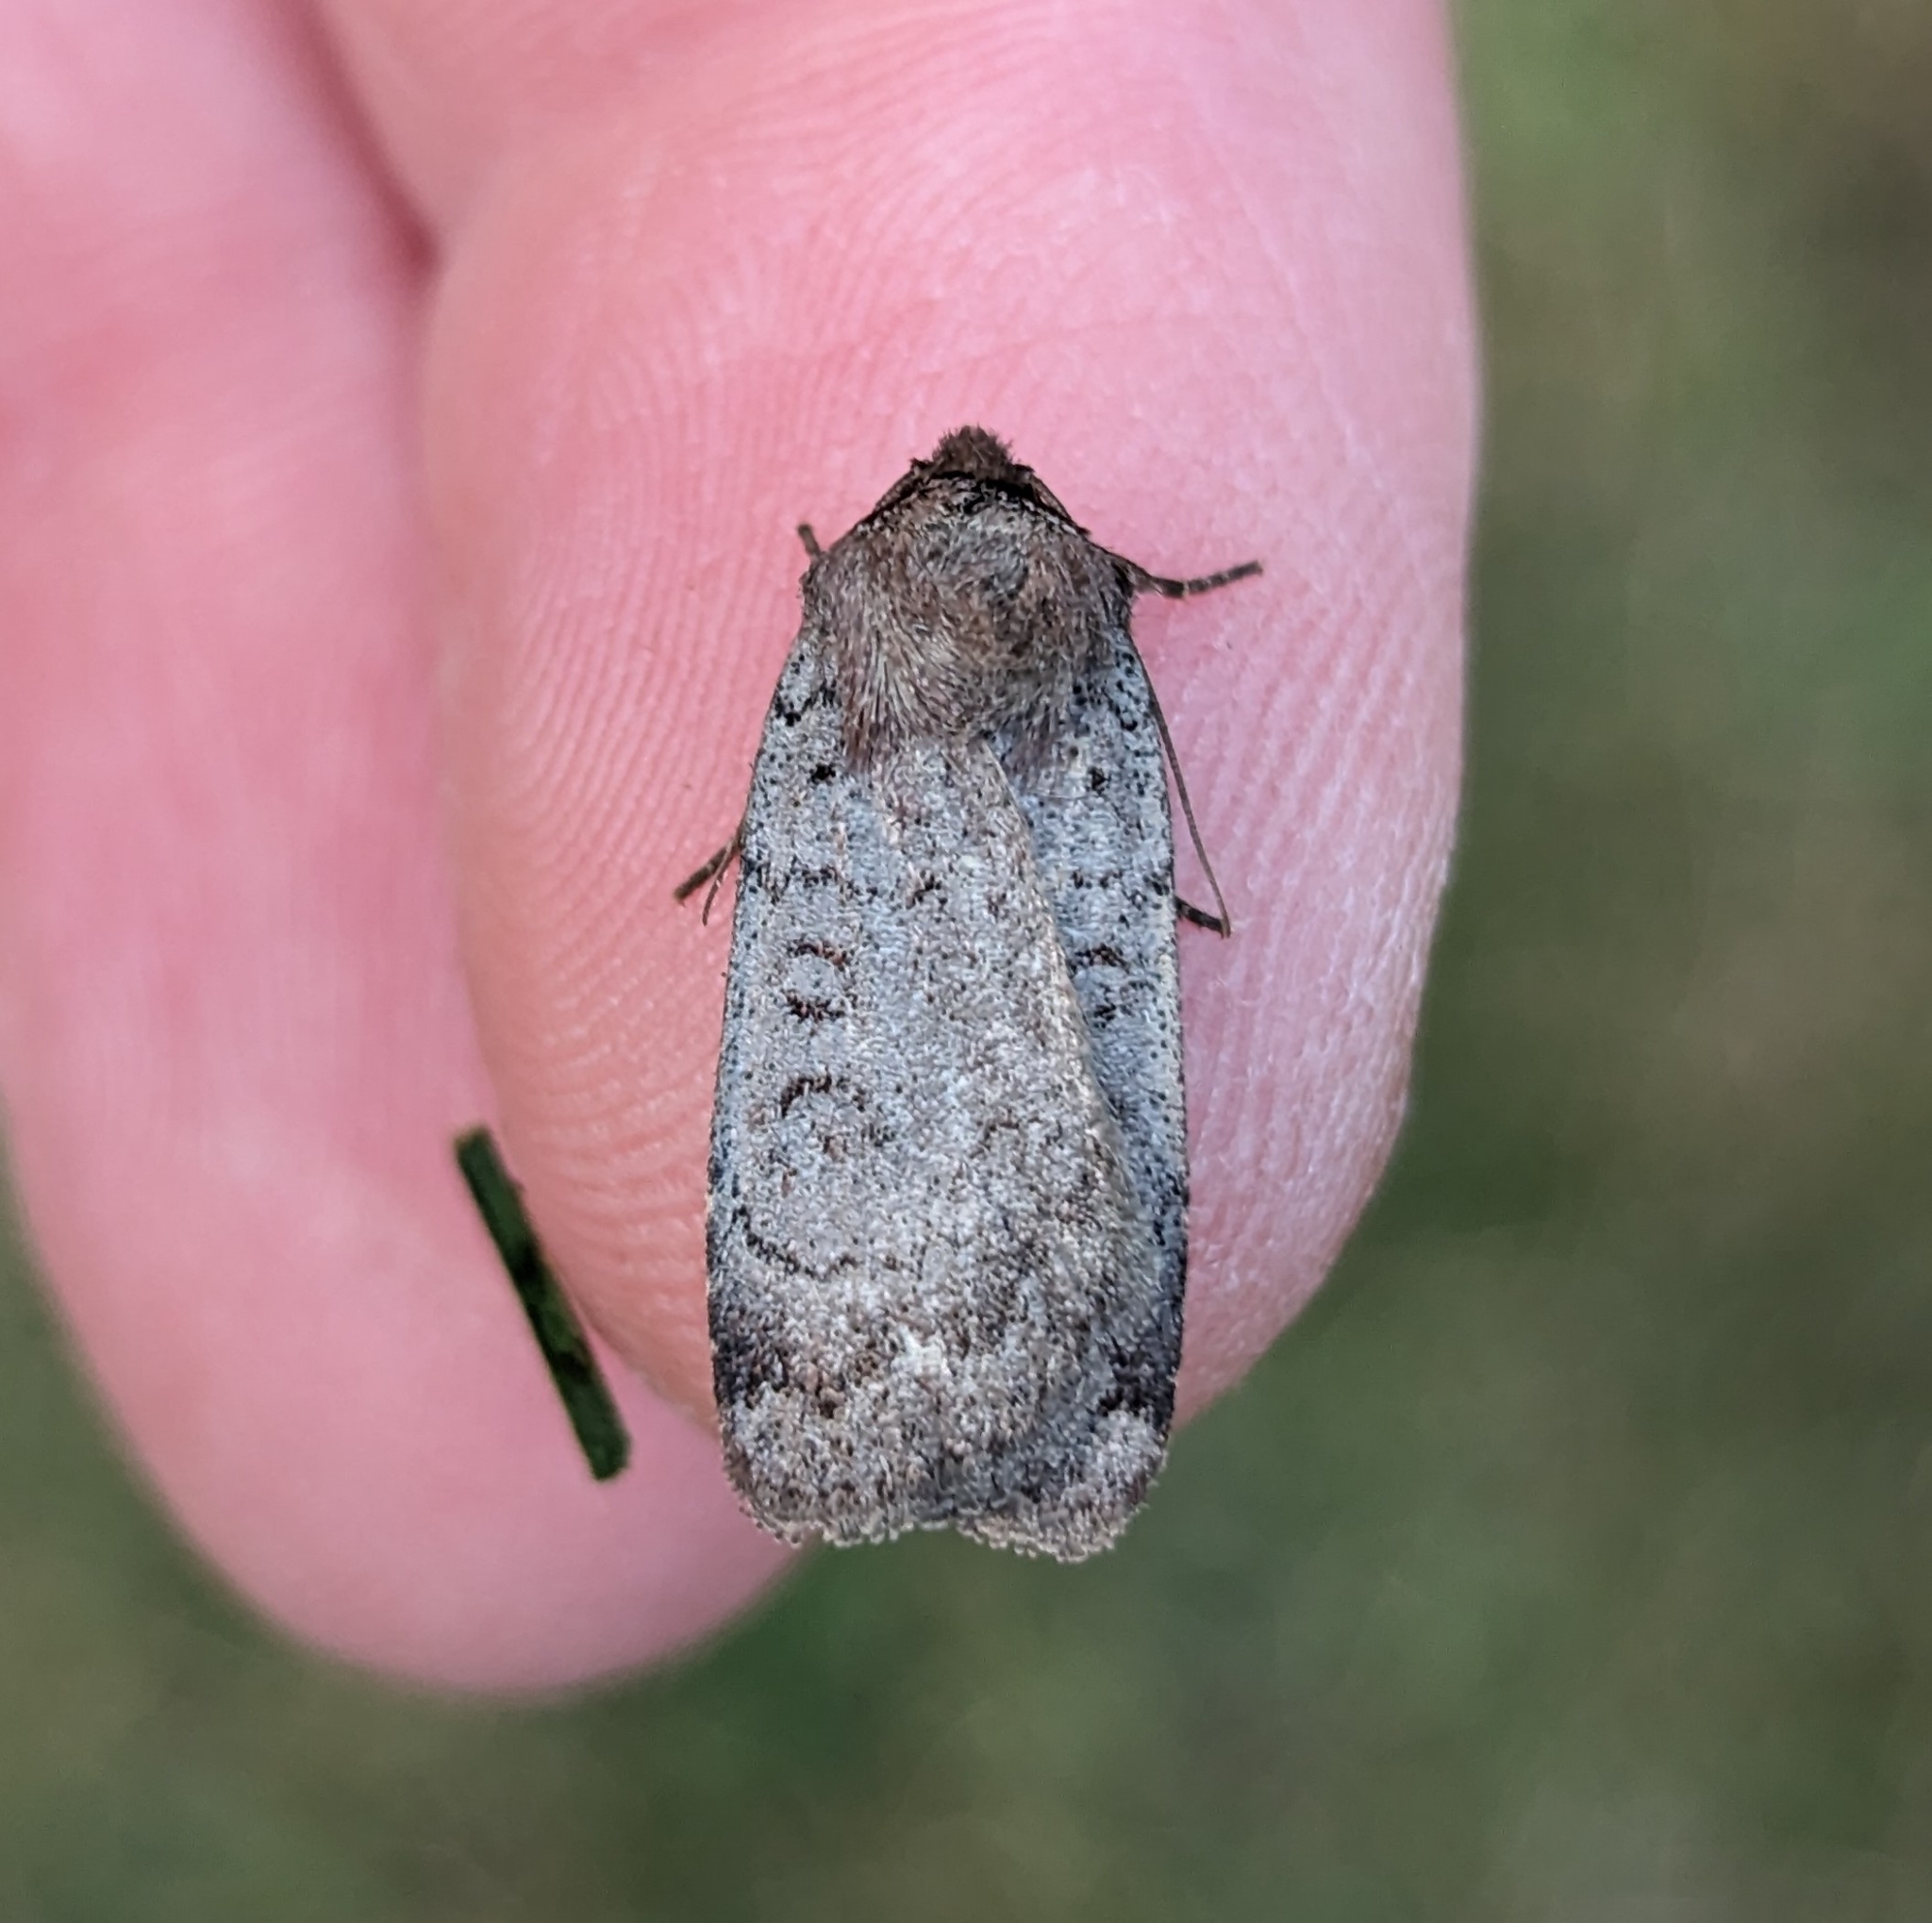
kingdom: Animalia
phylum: Arthropoda
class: Insecta
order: Lepidoptera
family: Noctuidae
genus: Protolampra
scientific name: Protolampra rufipectus
